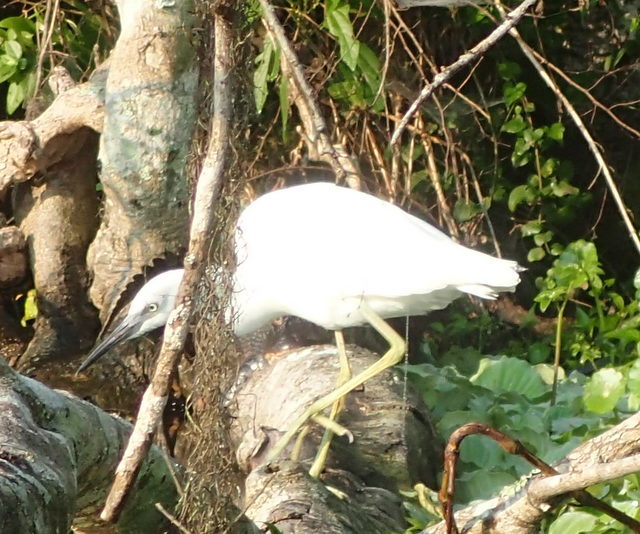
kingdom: Animalia
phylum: Chordata
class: Aves
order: Pelecaniformes
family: Ardeidae
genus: Egretta
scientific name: Egretta caerulea
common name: Little blue heron
